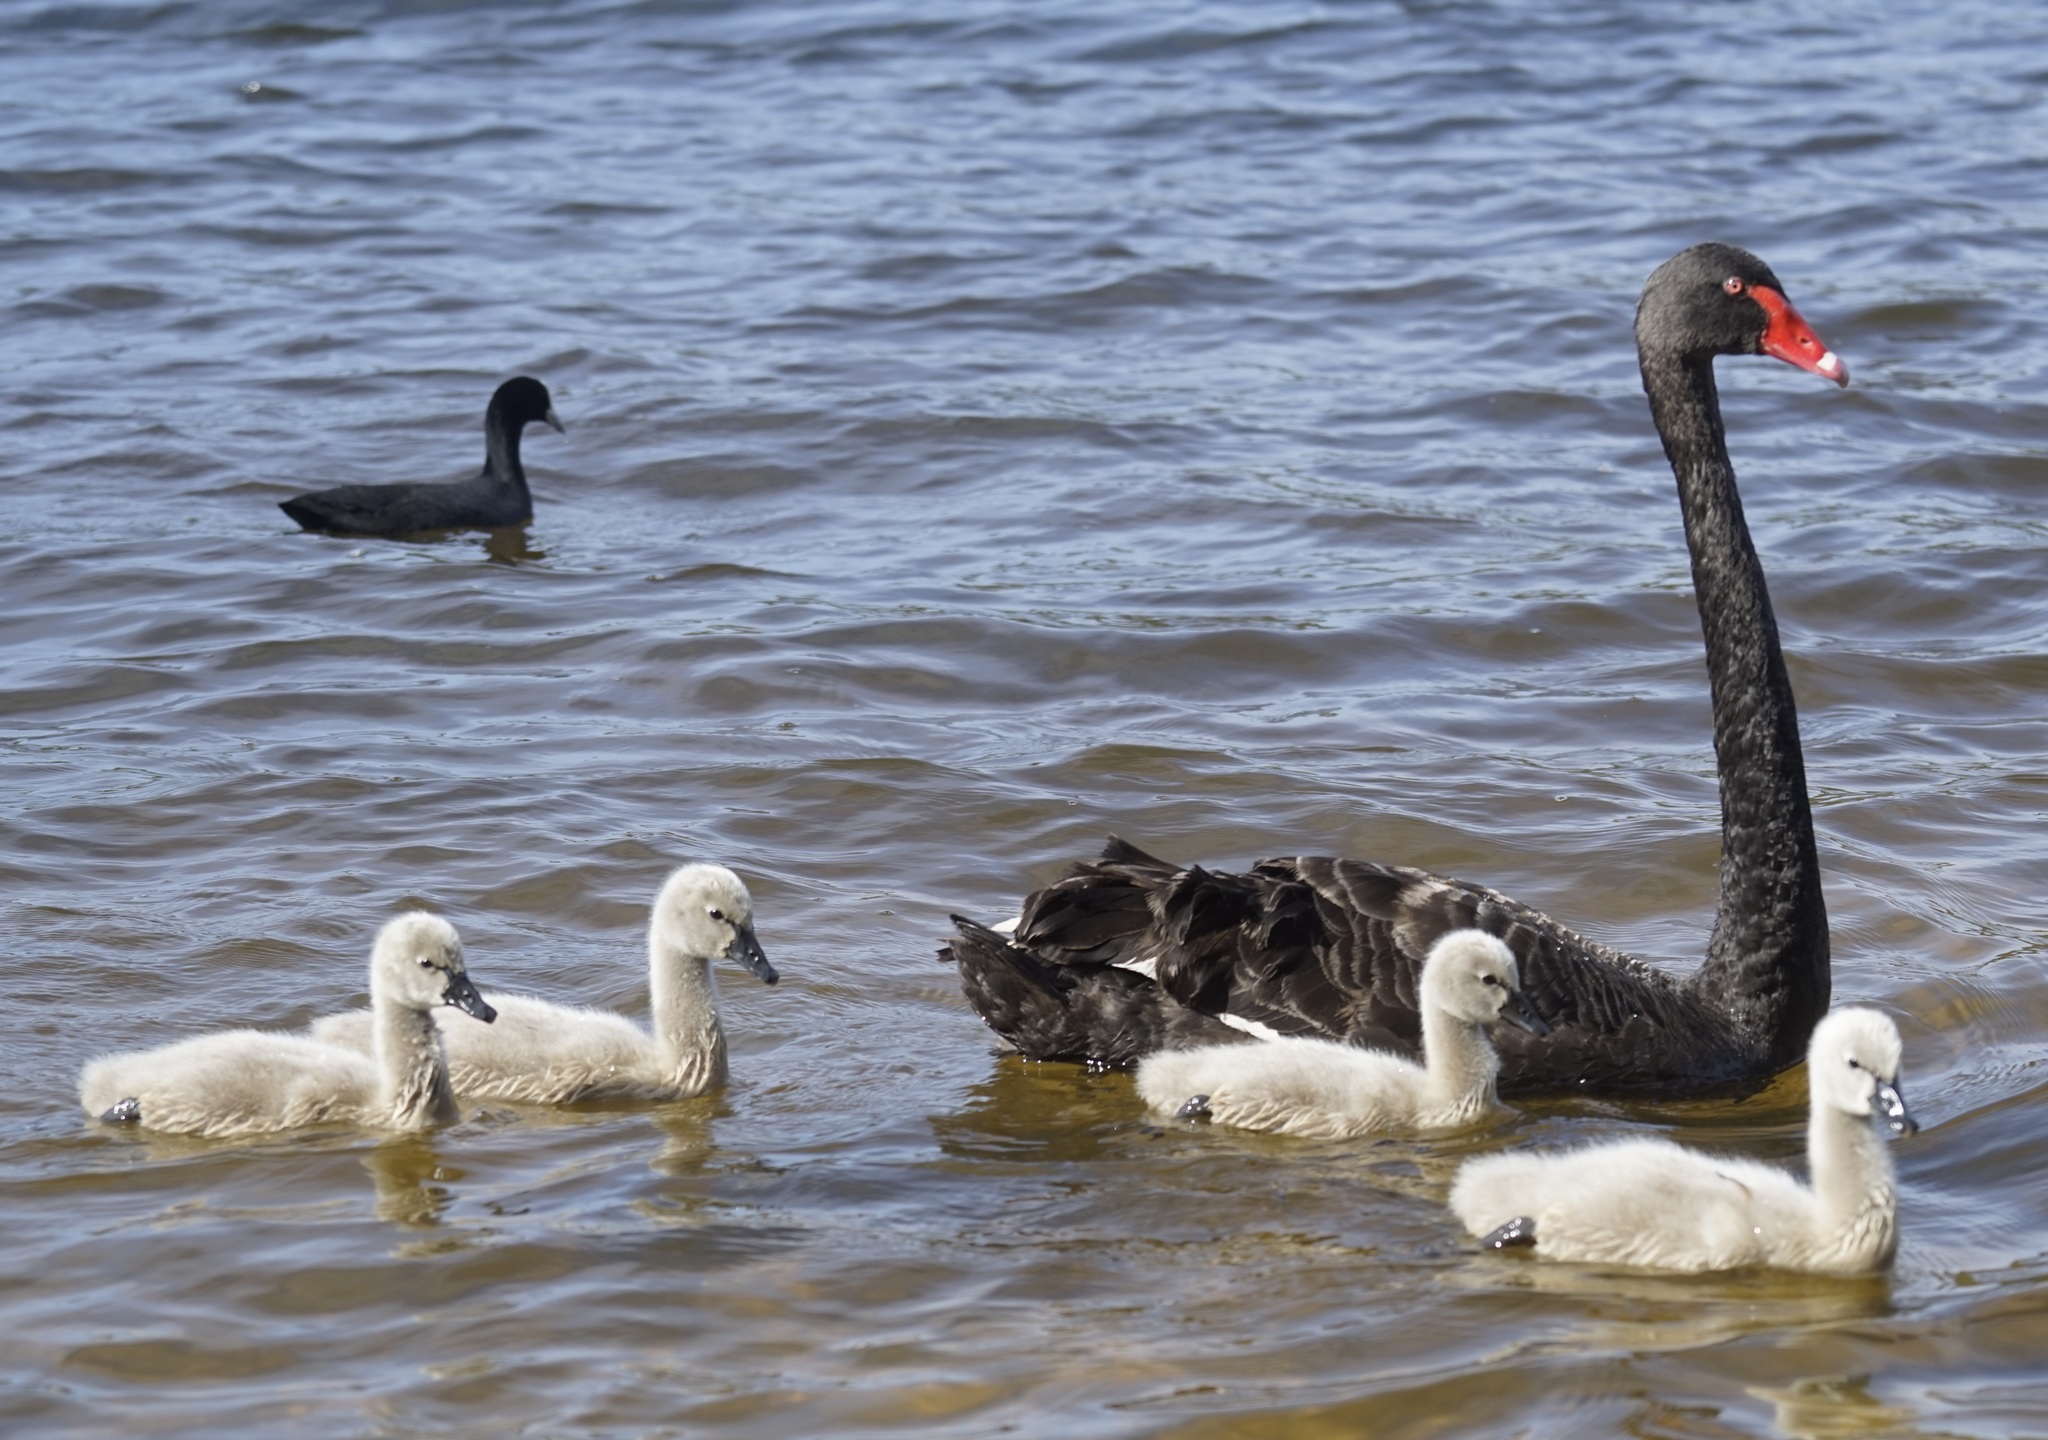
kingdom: Animalia
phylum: Chordata
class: Aves
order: Anseriformes
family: Anatidae
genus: Cygnus
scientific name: Cygnus atratus
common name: Black swan
